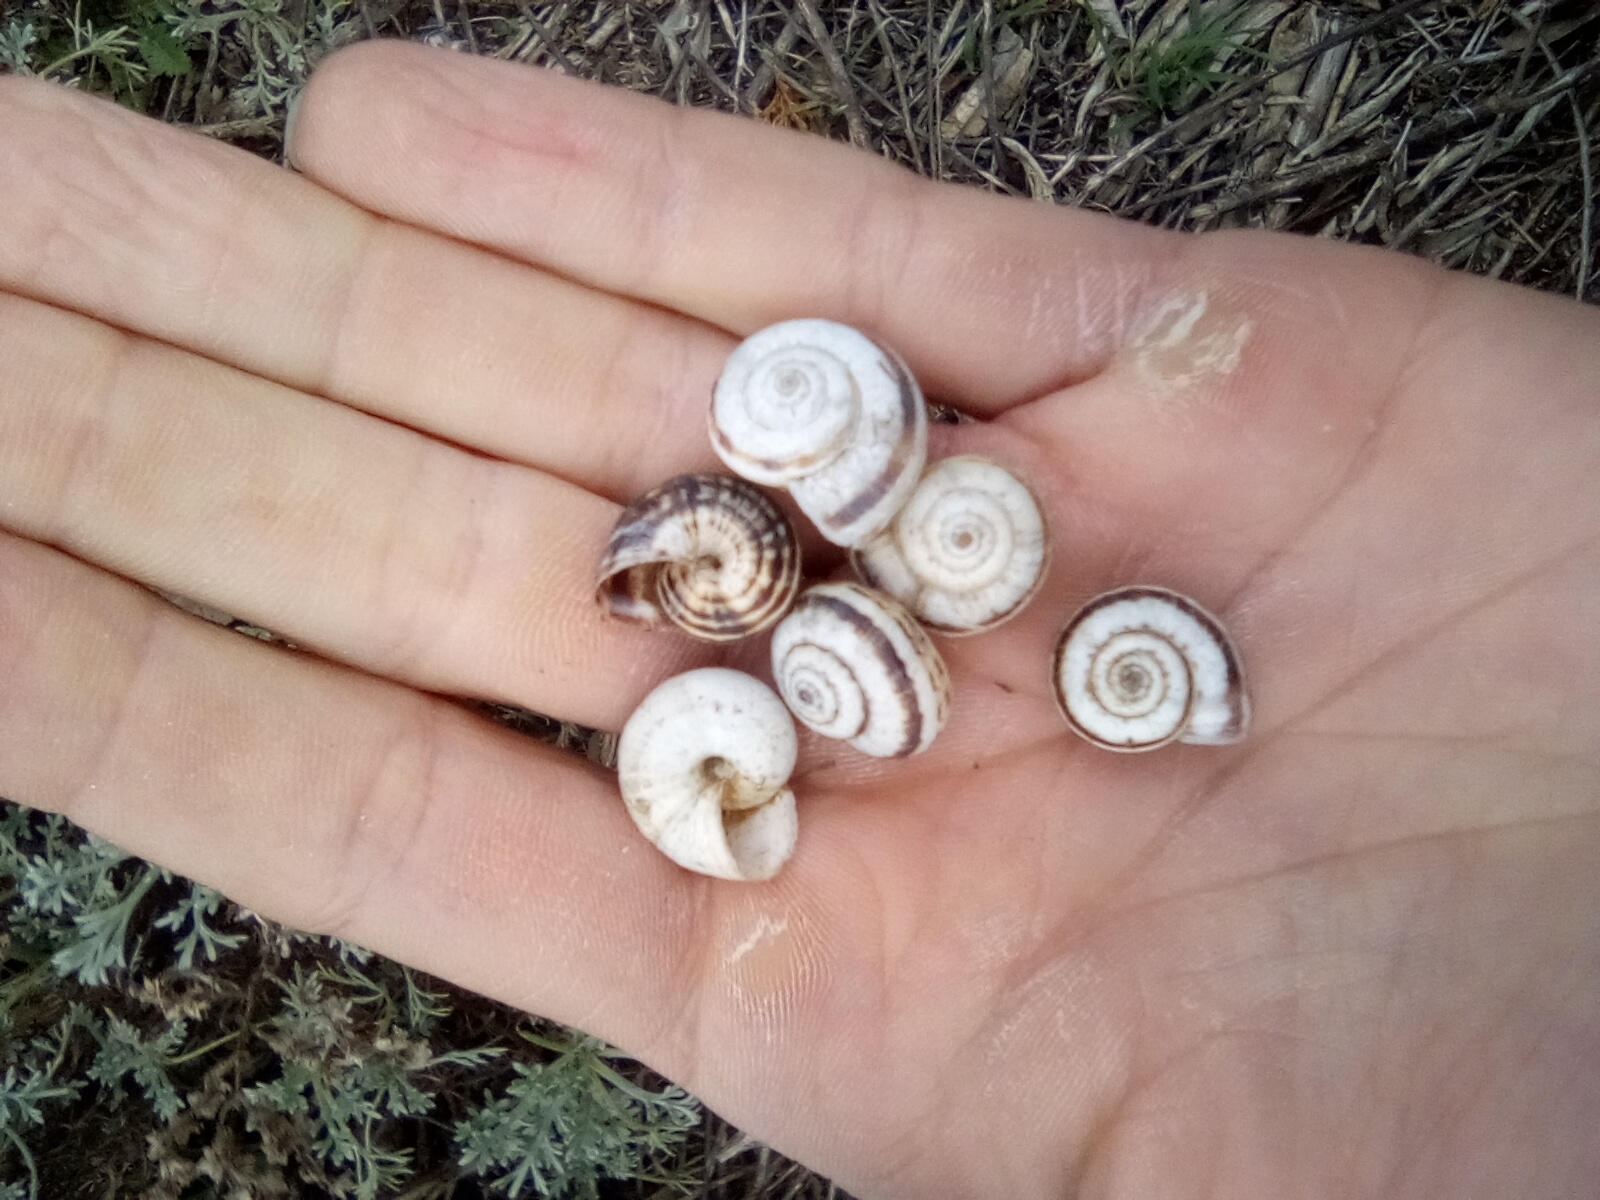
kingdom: Animalia
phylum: Mollusca
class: Gastropoda
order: Stylommatophora
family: Geomitridae
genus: Xeropicta
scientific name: Xeropicta krynickii
